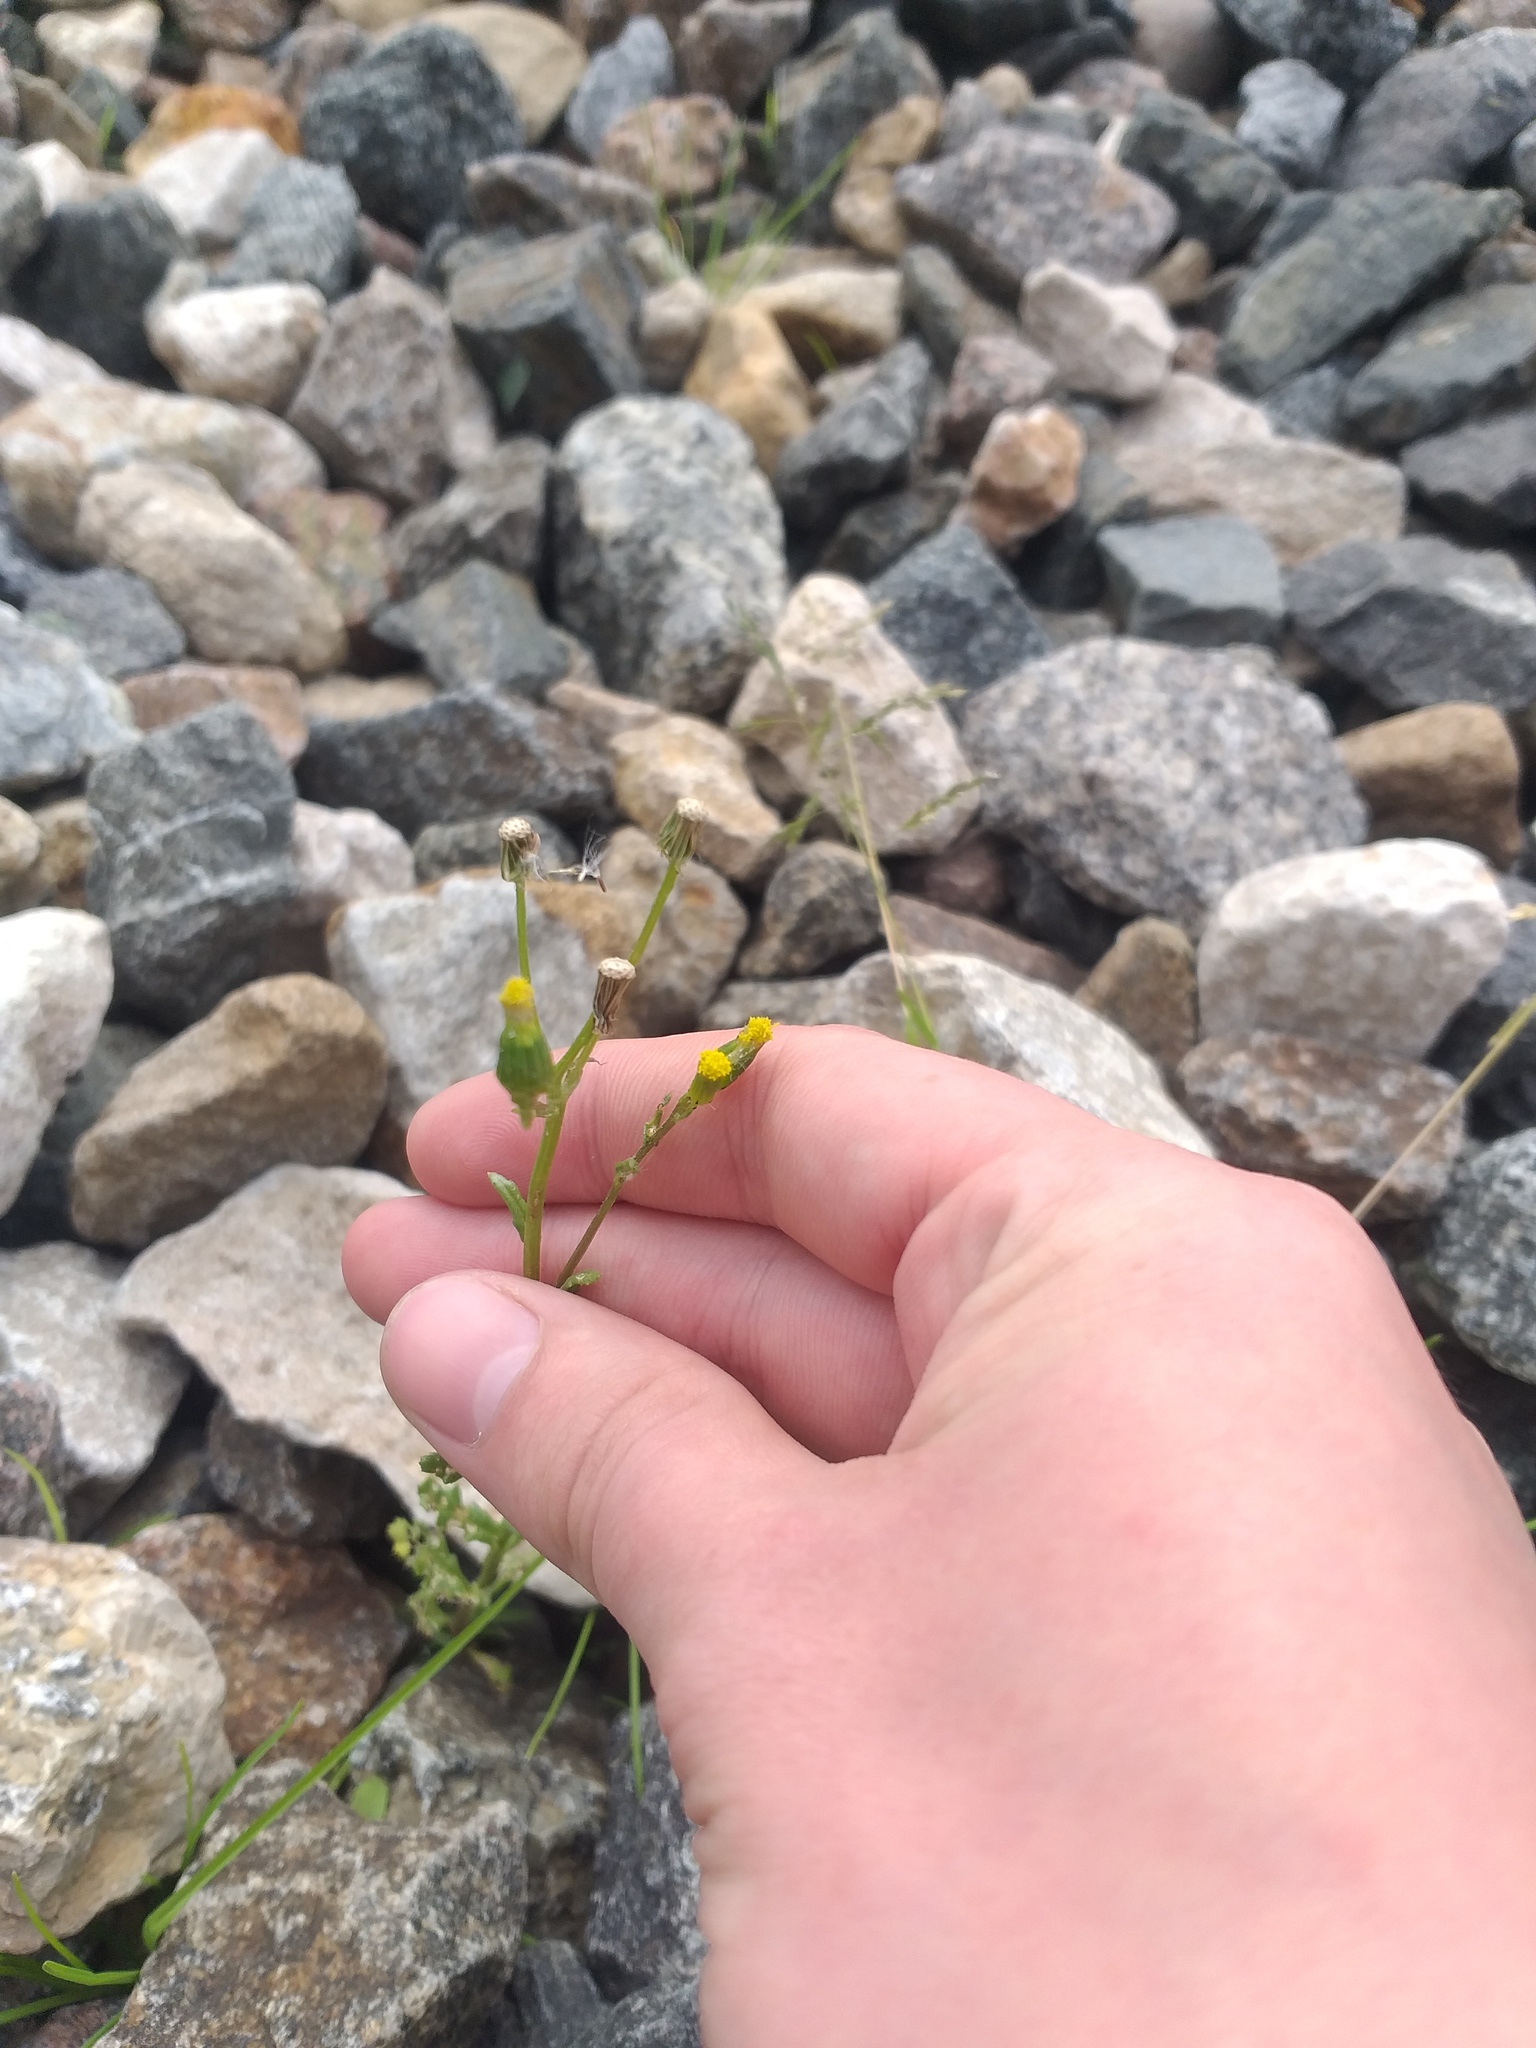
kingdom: Plantae
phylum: Tracheophyta
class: Magnoliopsida
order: Asterales
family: Asteraceae
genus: Senecio
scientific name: Senecio vulgaris
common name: Old-man-in-the-spring
